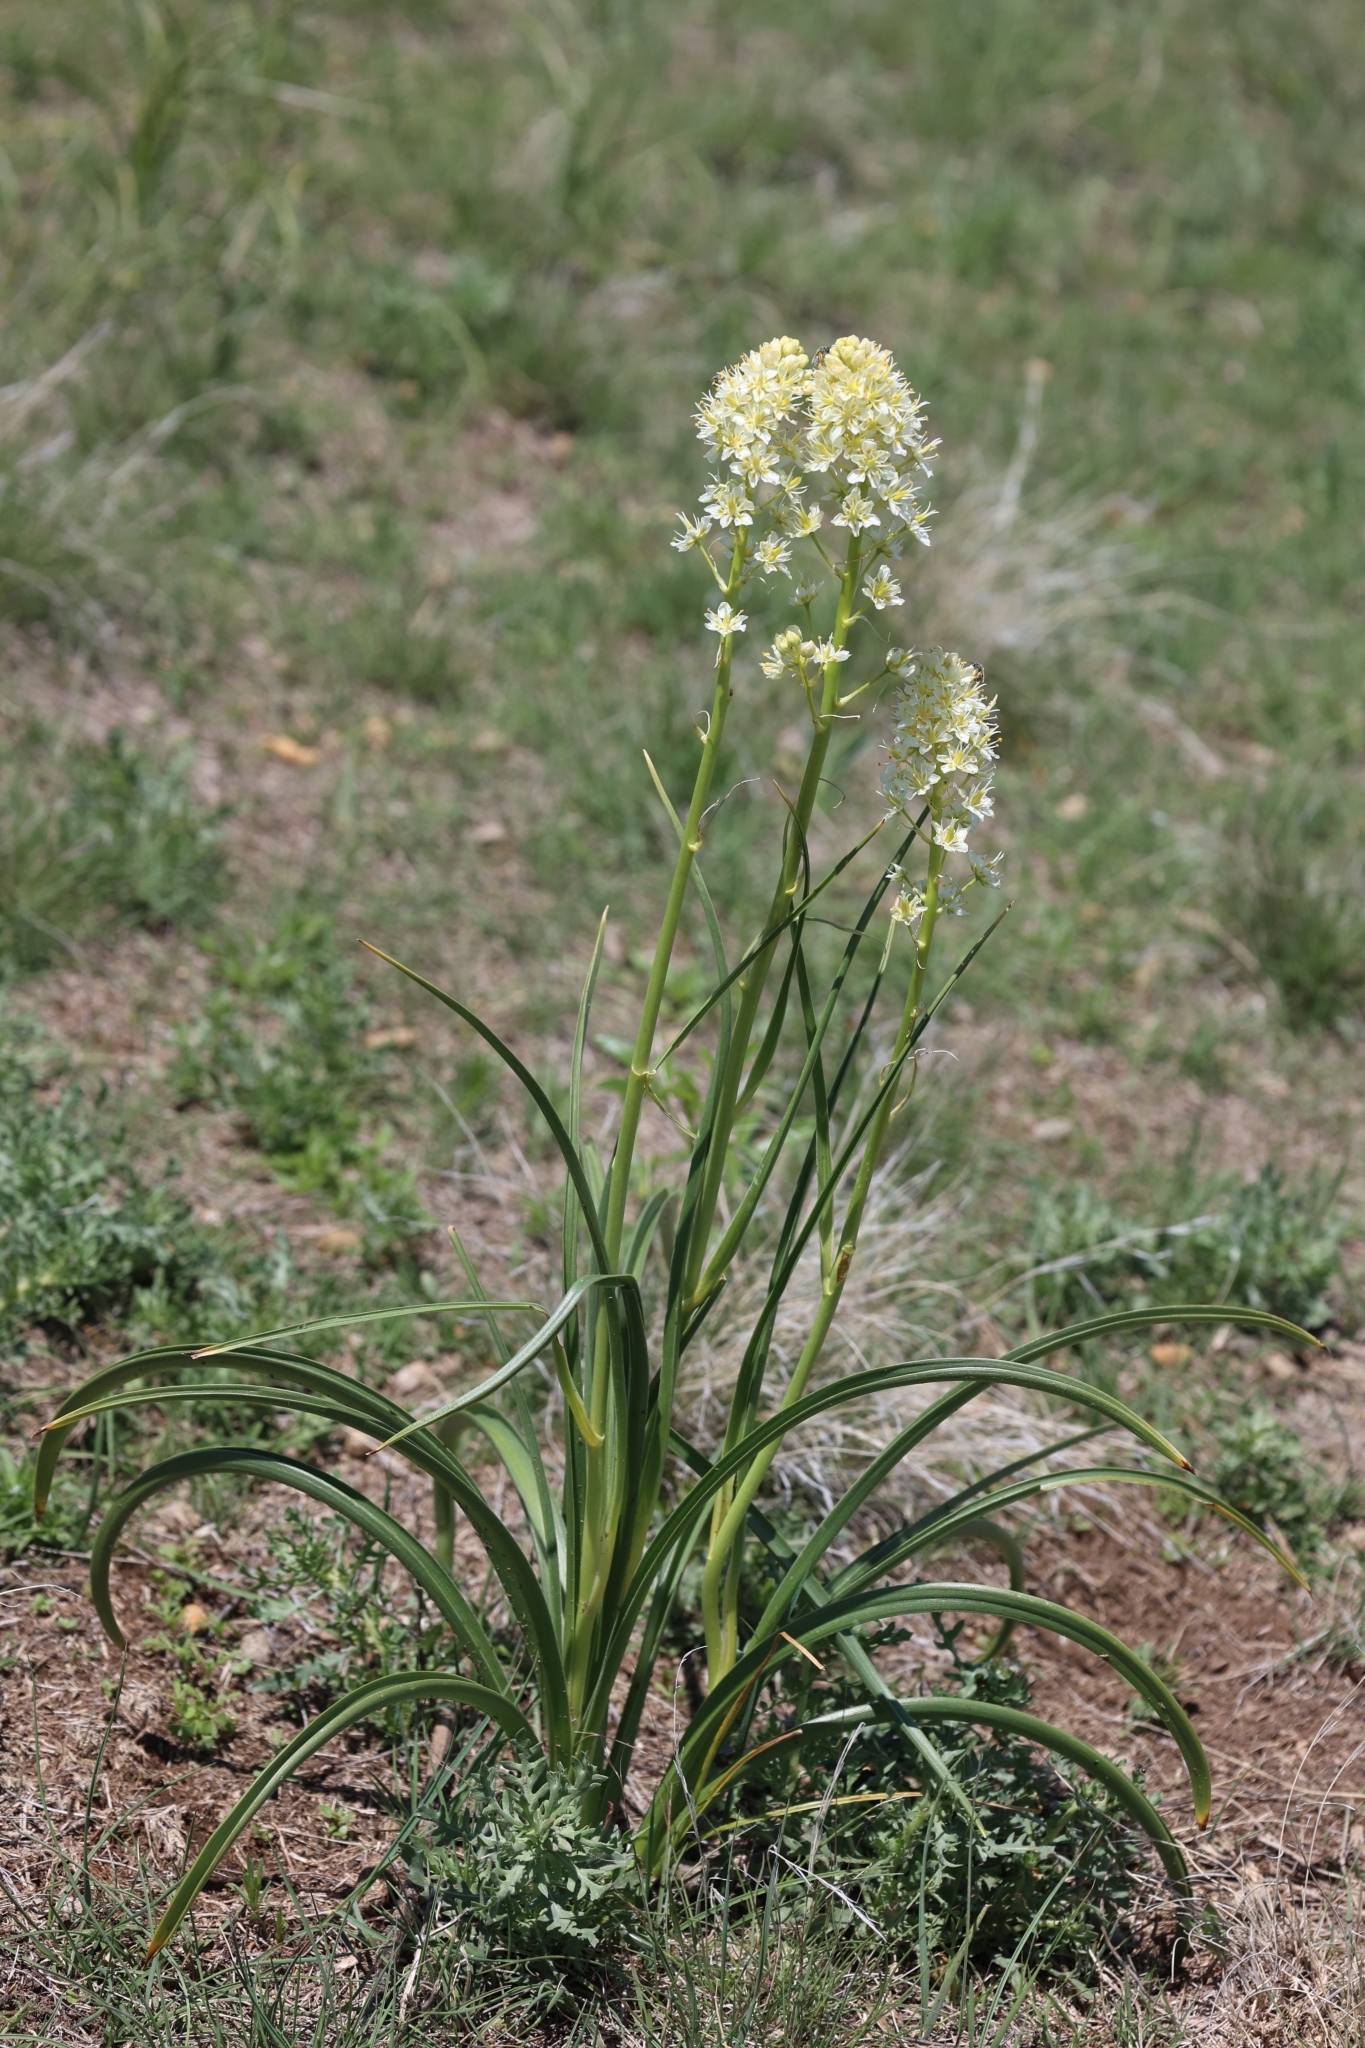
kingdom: Plantae
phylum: Tracheophyta
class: Liliopsida
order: Liliales
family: Melanthiaceae
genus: Toxicoscordion
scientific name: Toxicoscordion venenosum
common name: Meadow death camas
